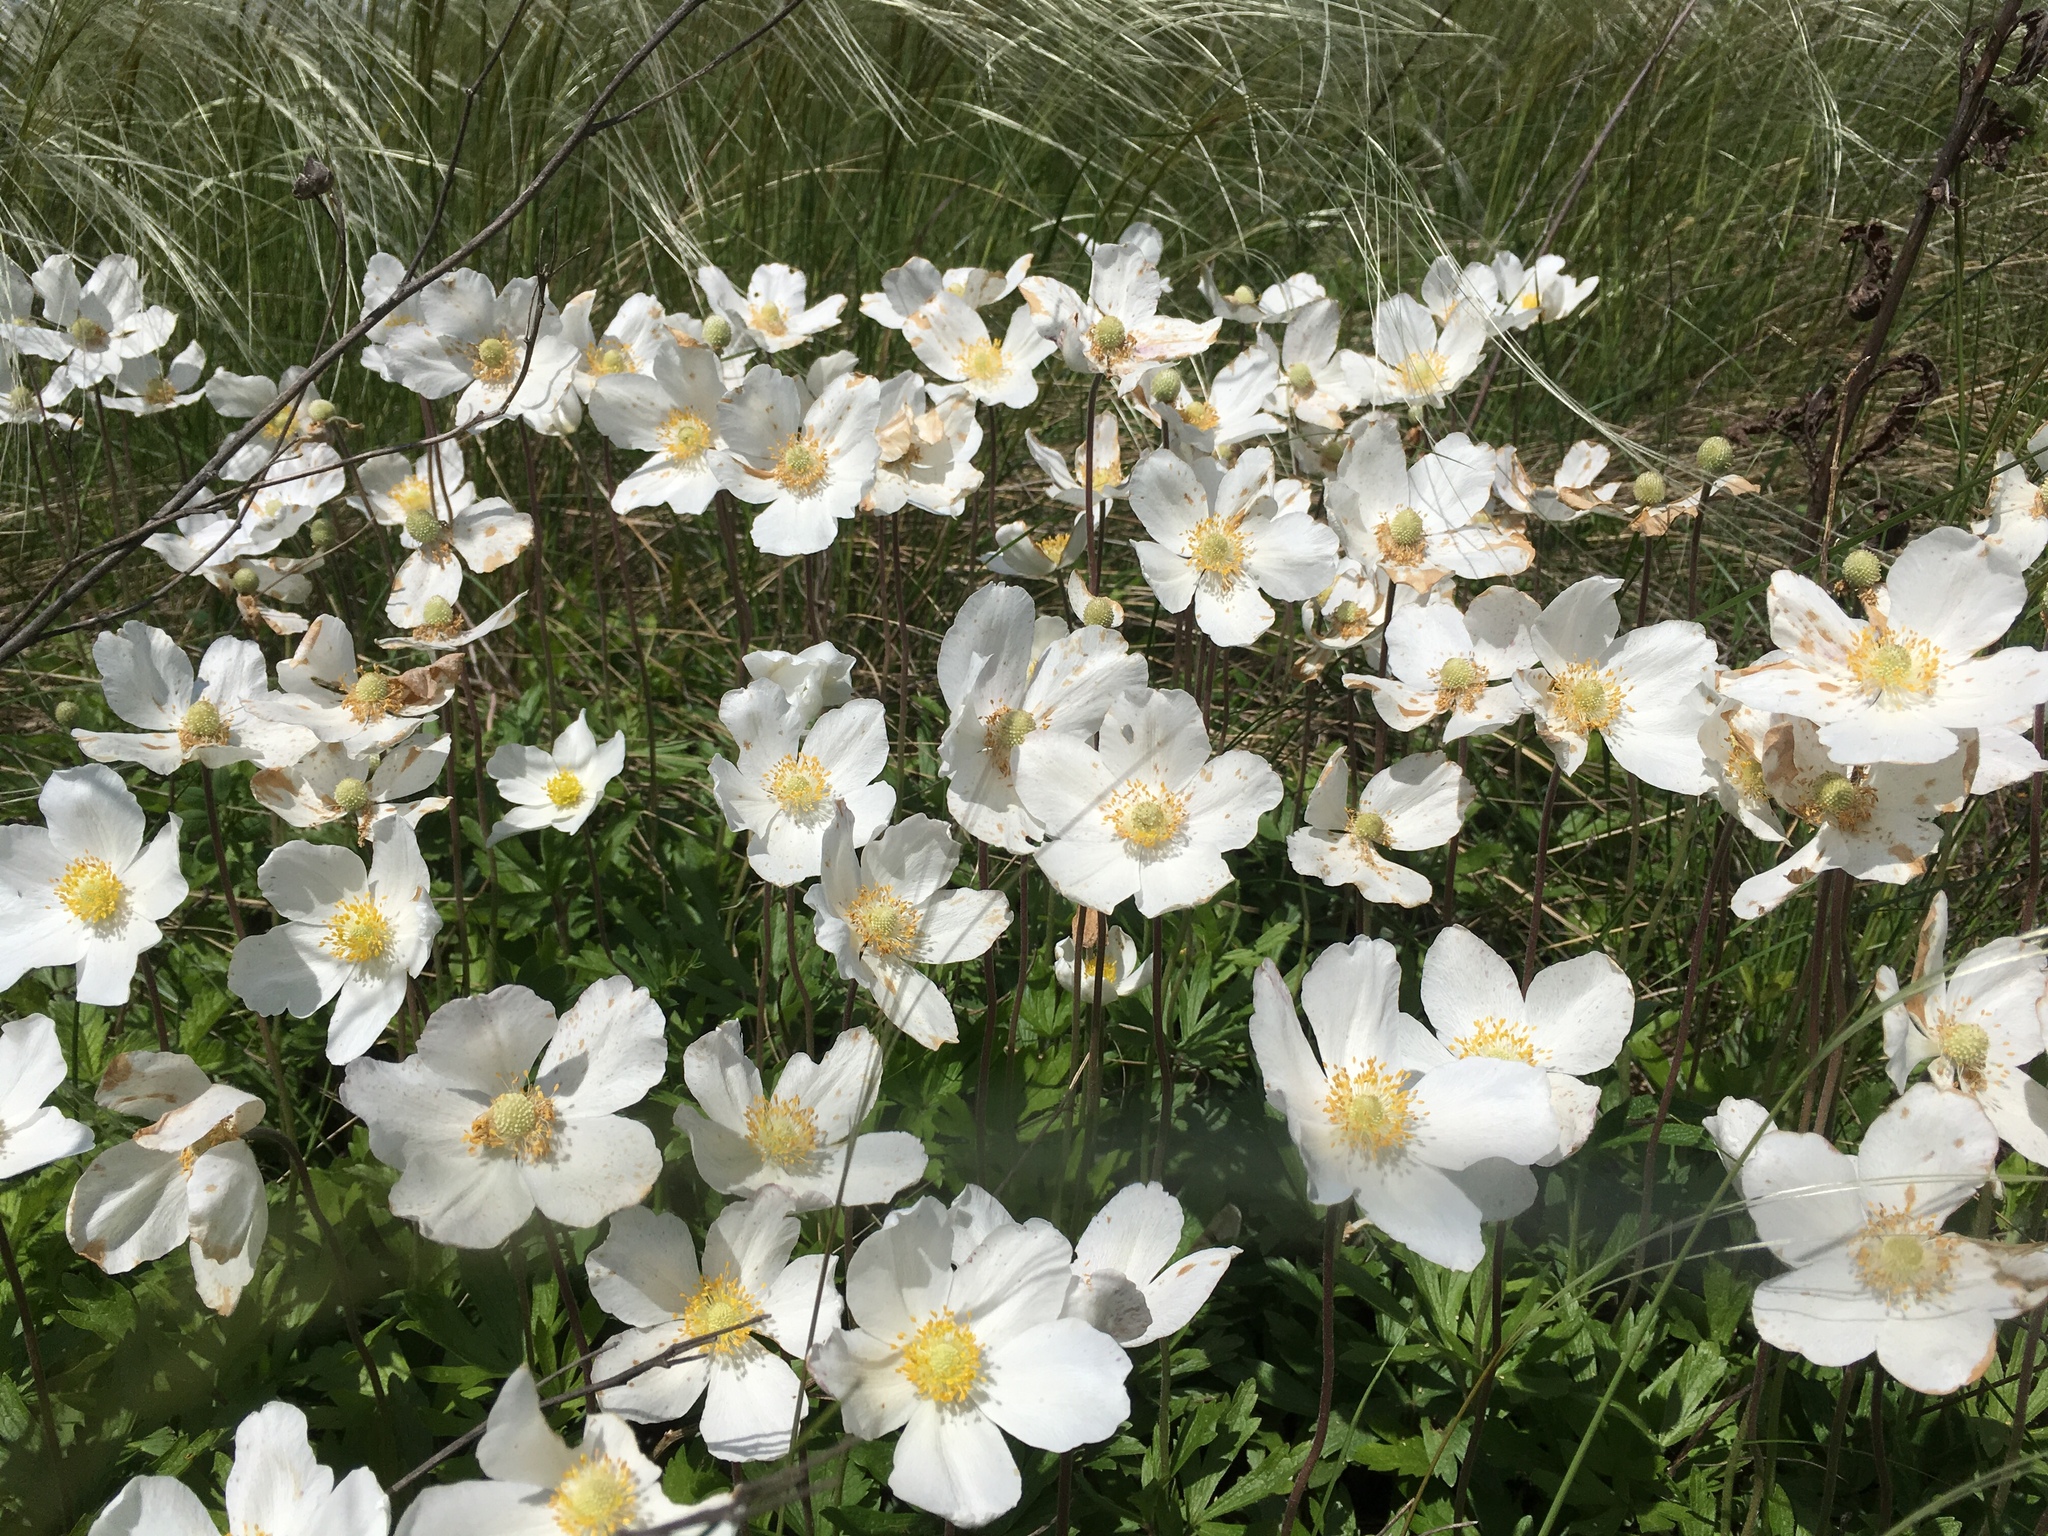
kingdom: Plantae
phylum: Tracheophyta
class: Magnoliopsida
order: Ranunculales
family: Ranunculaceae
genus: Anemone
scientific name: Anemone sylvestris
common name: Snowdrop anemone
